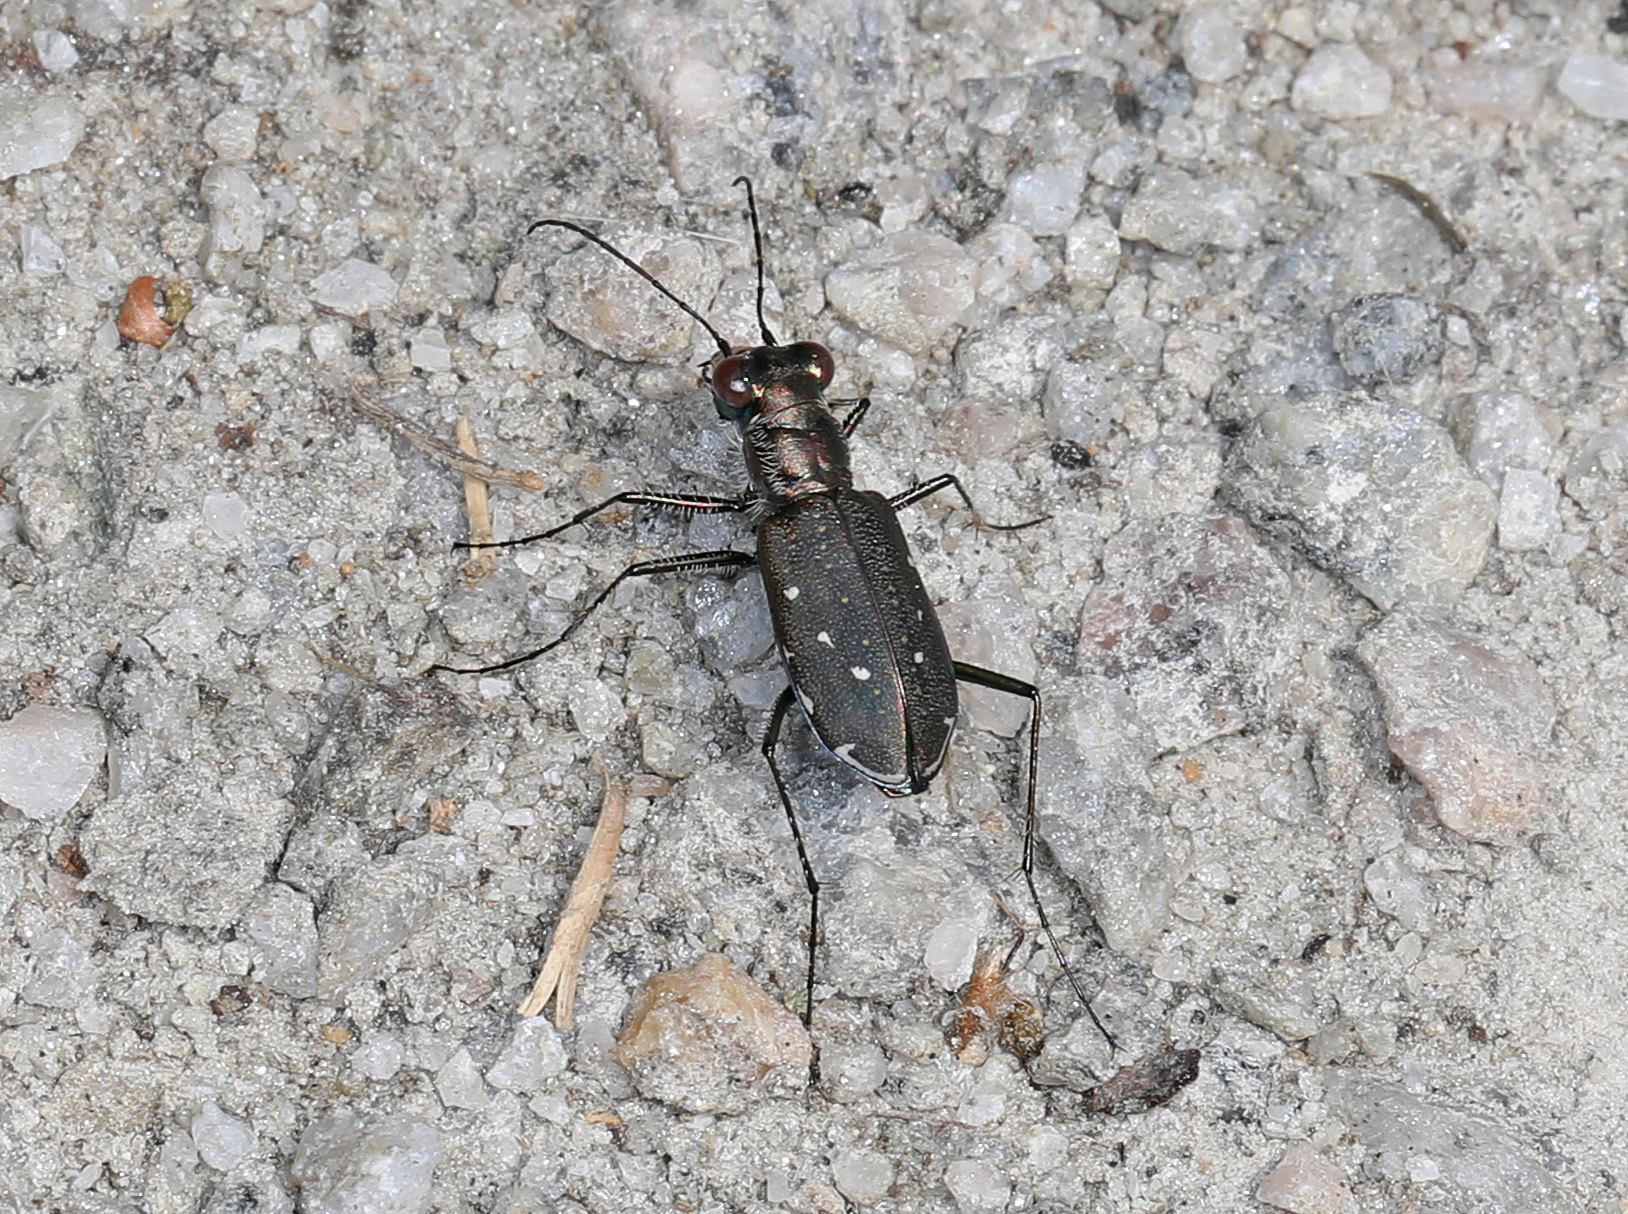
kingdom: Animalia
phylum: Arthropoda
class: Insecta
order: Coleoptera
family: Carabidae
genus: Cicindela
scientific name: Cicindela punctulata
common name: Punctured tiger beetle
